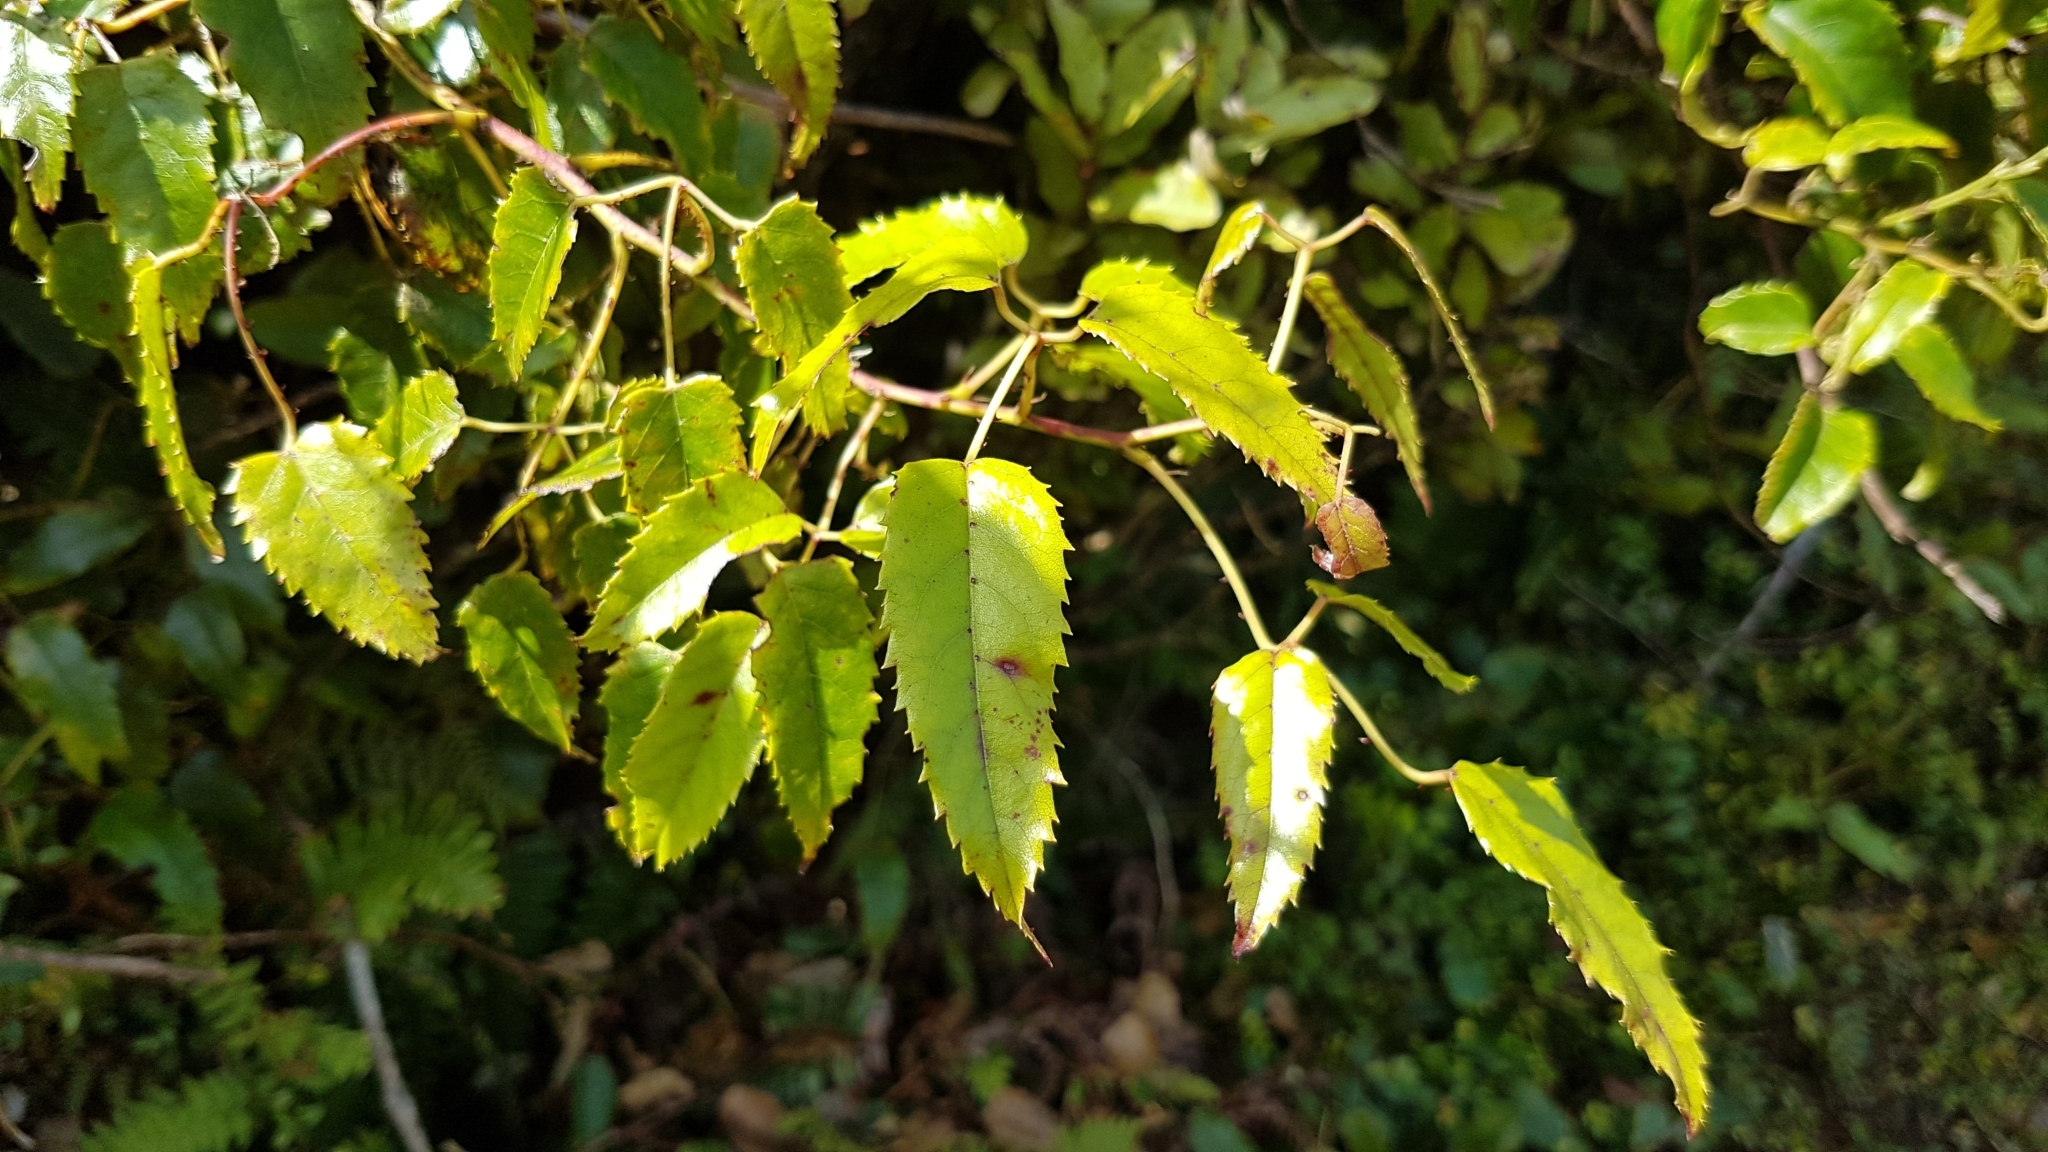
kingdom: Plantae
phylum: Tracheophyta
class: Magnoliopsida
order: Rosales
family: Rosaceae
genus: Rubus
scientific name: Rubus cissoides
